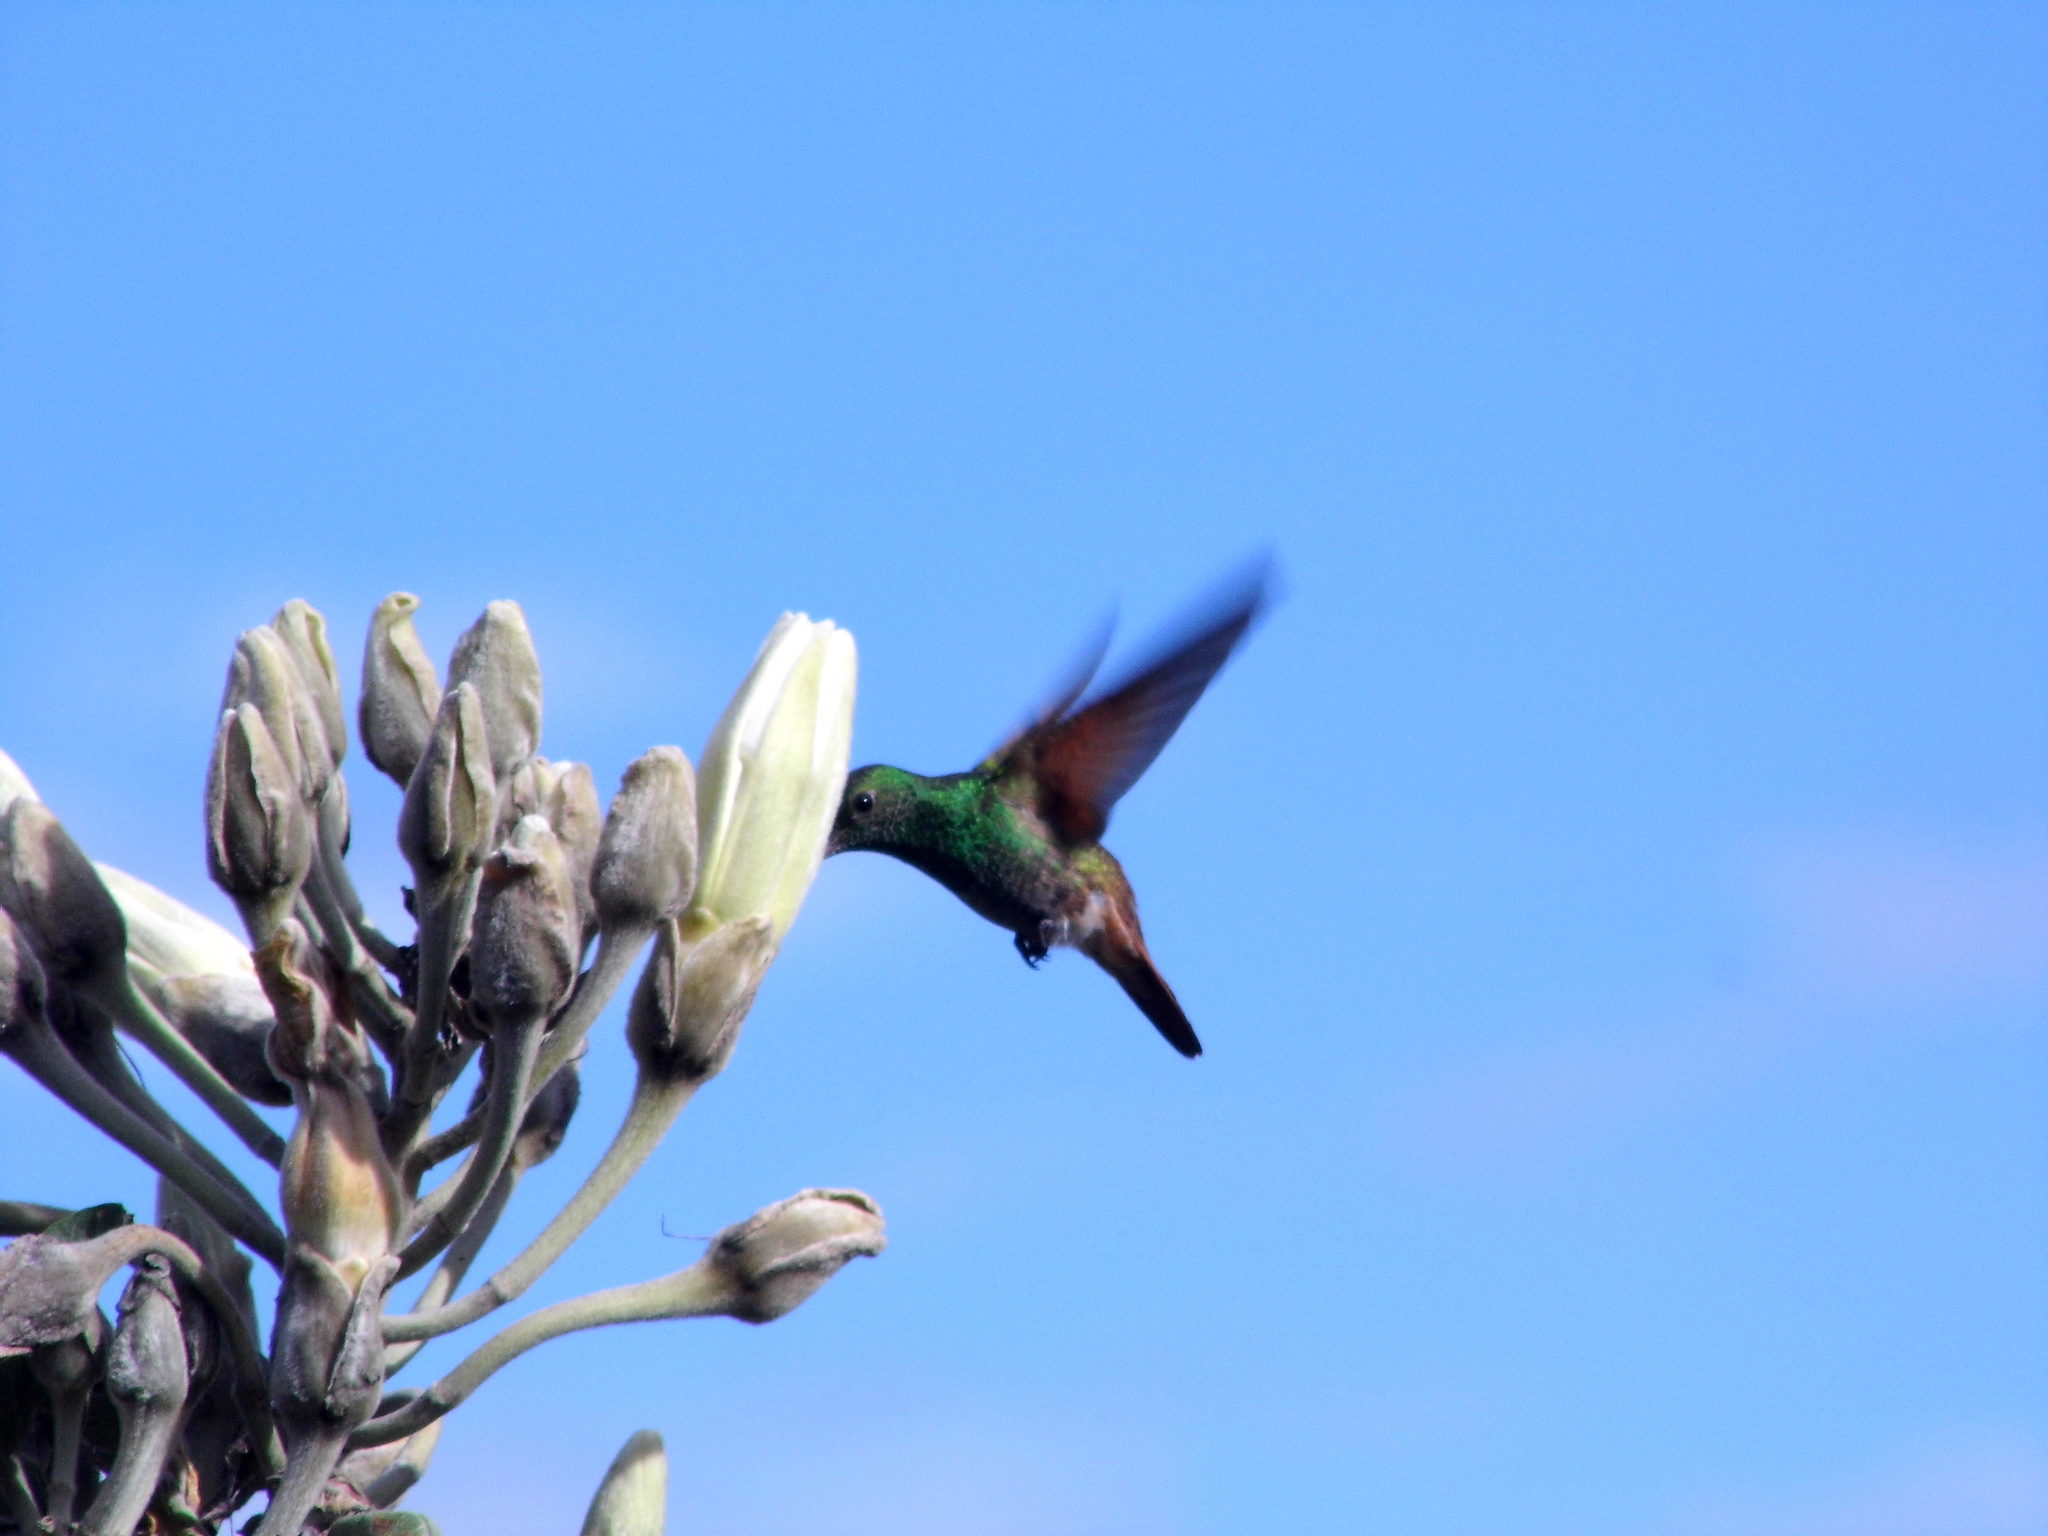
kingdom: Animalia
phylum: Chordata
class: Aves
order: Apodiformes
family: Trochilidae
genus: Saucerottia
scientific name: Saucerottia beryllina
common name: Berylline hummingbird
